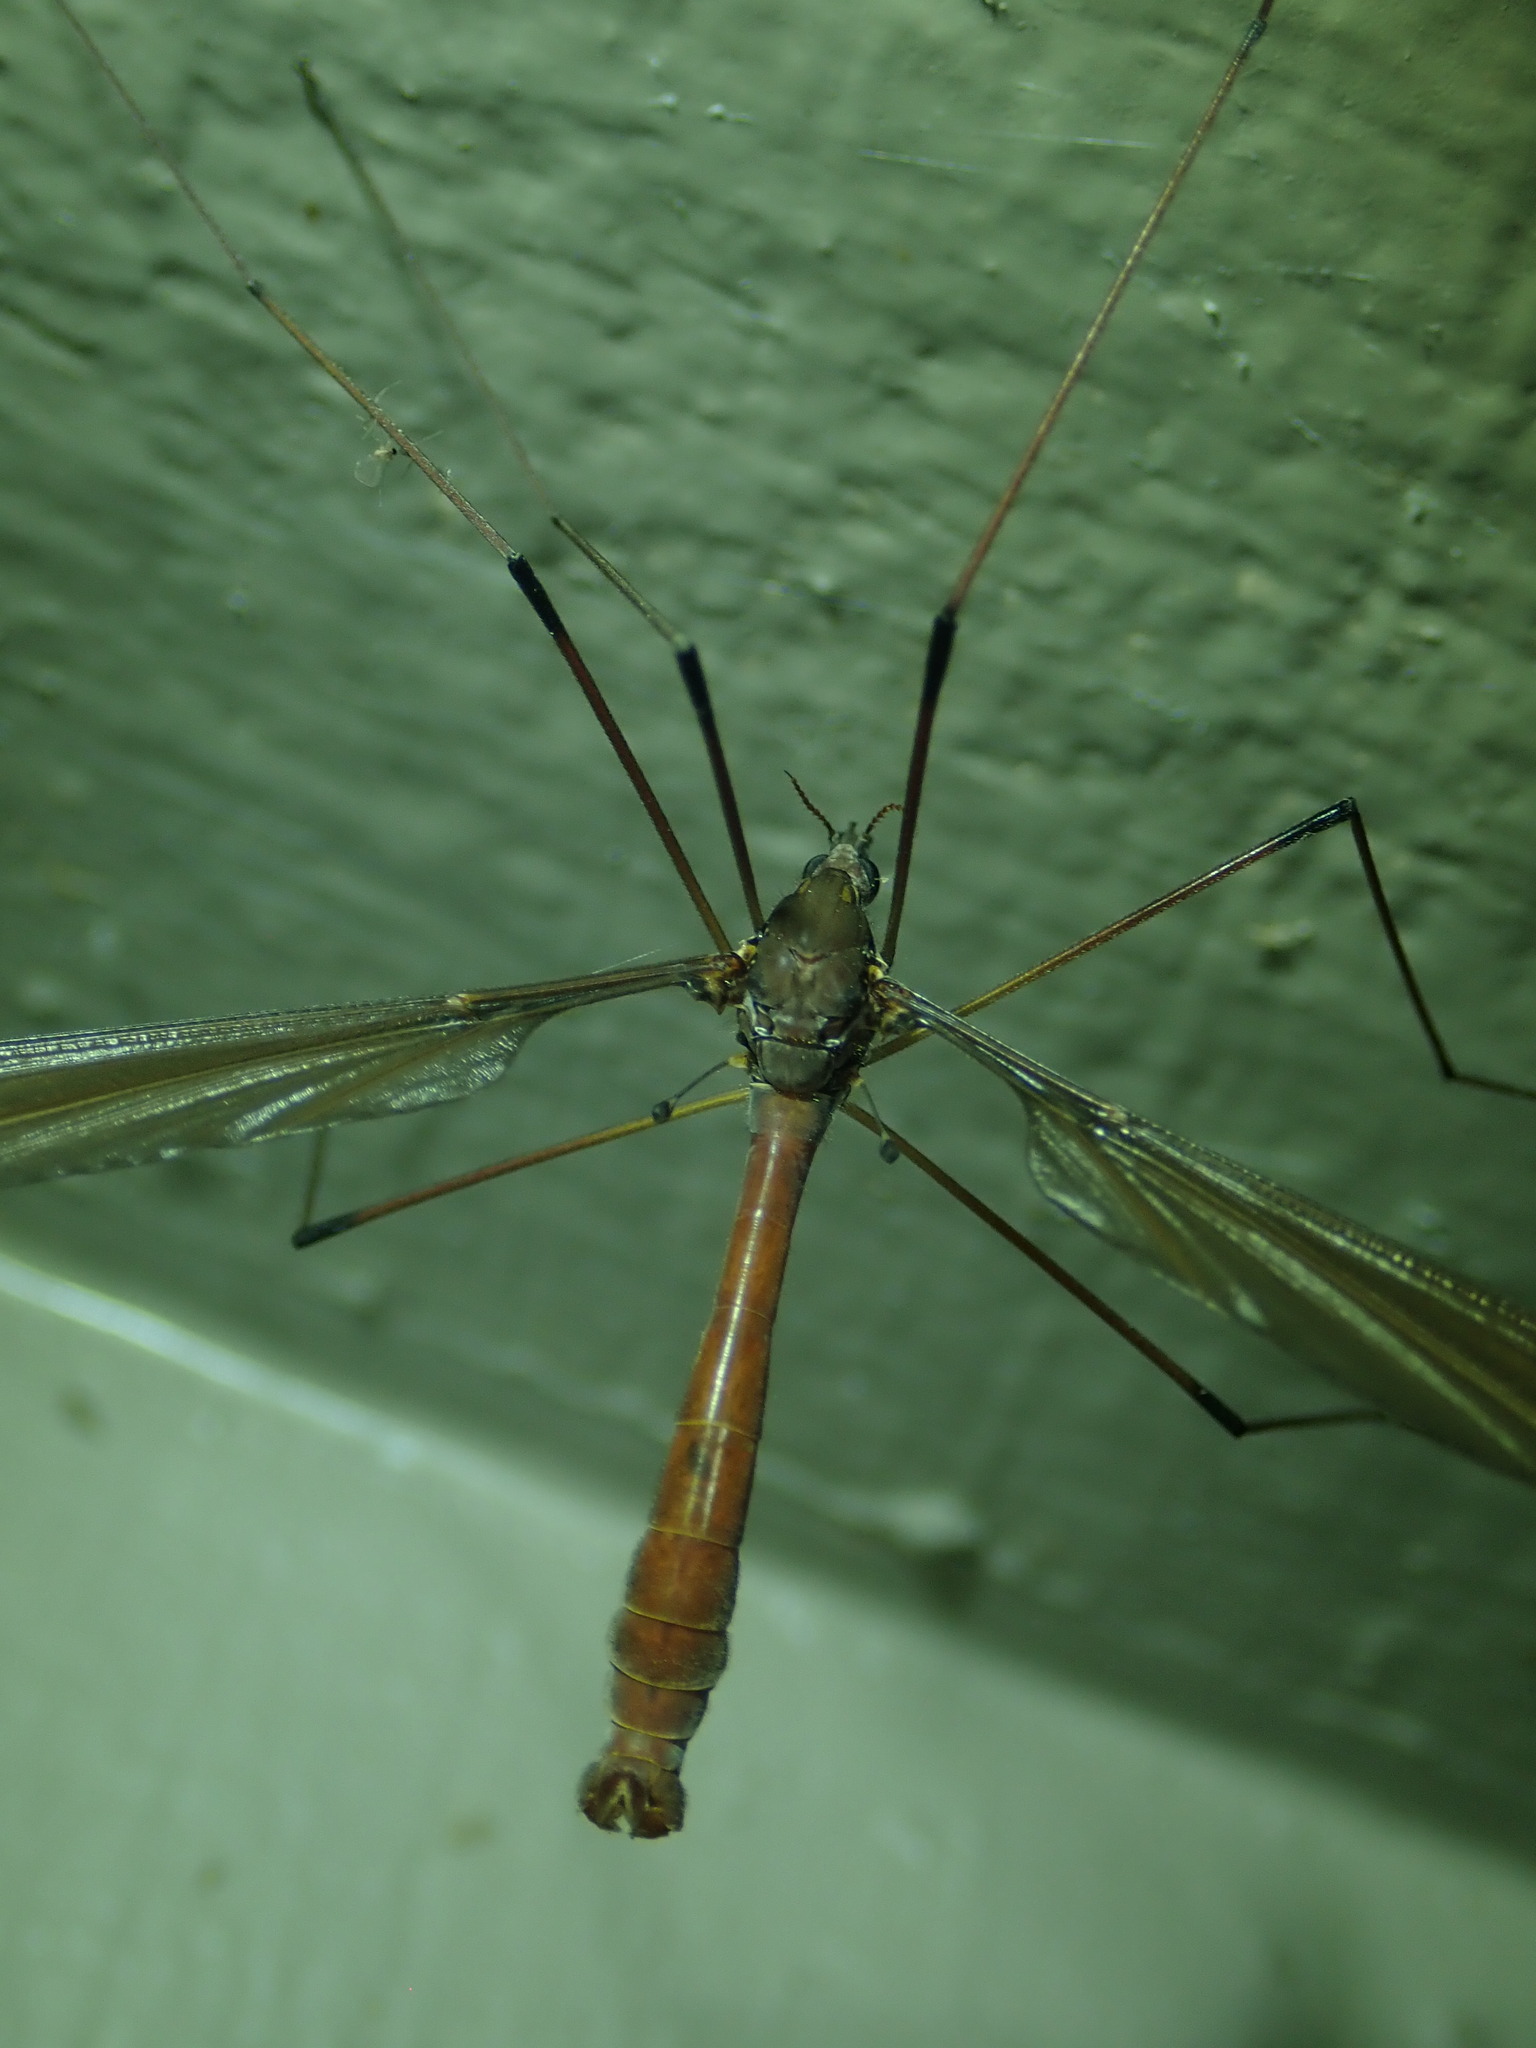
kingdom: Animalia
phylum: Arthropoda
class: Insecta
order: Diptera
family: Tipulidae
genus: Holorusia
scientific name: Holorusia hespera
